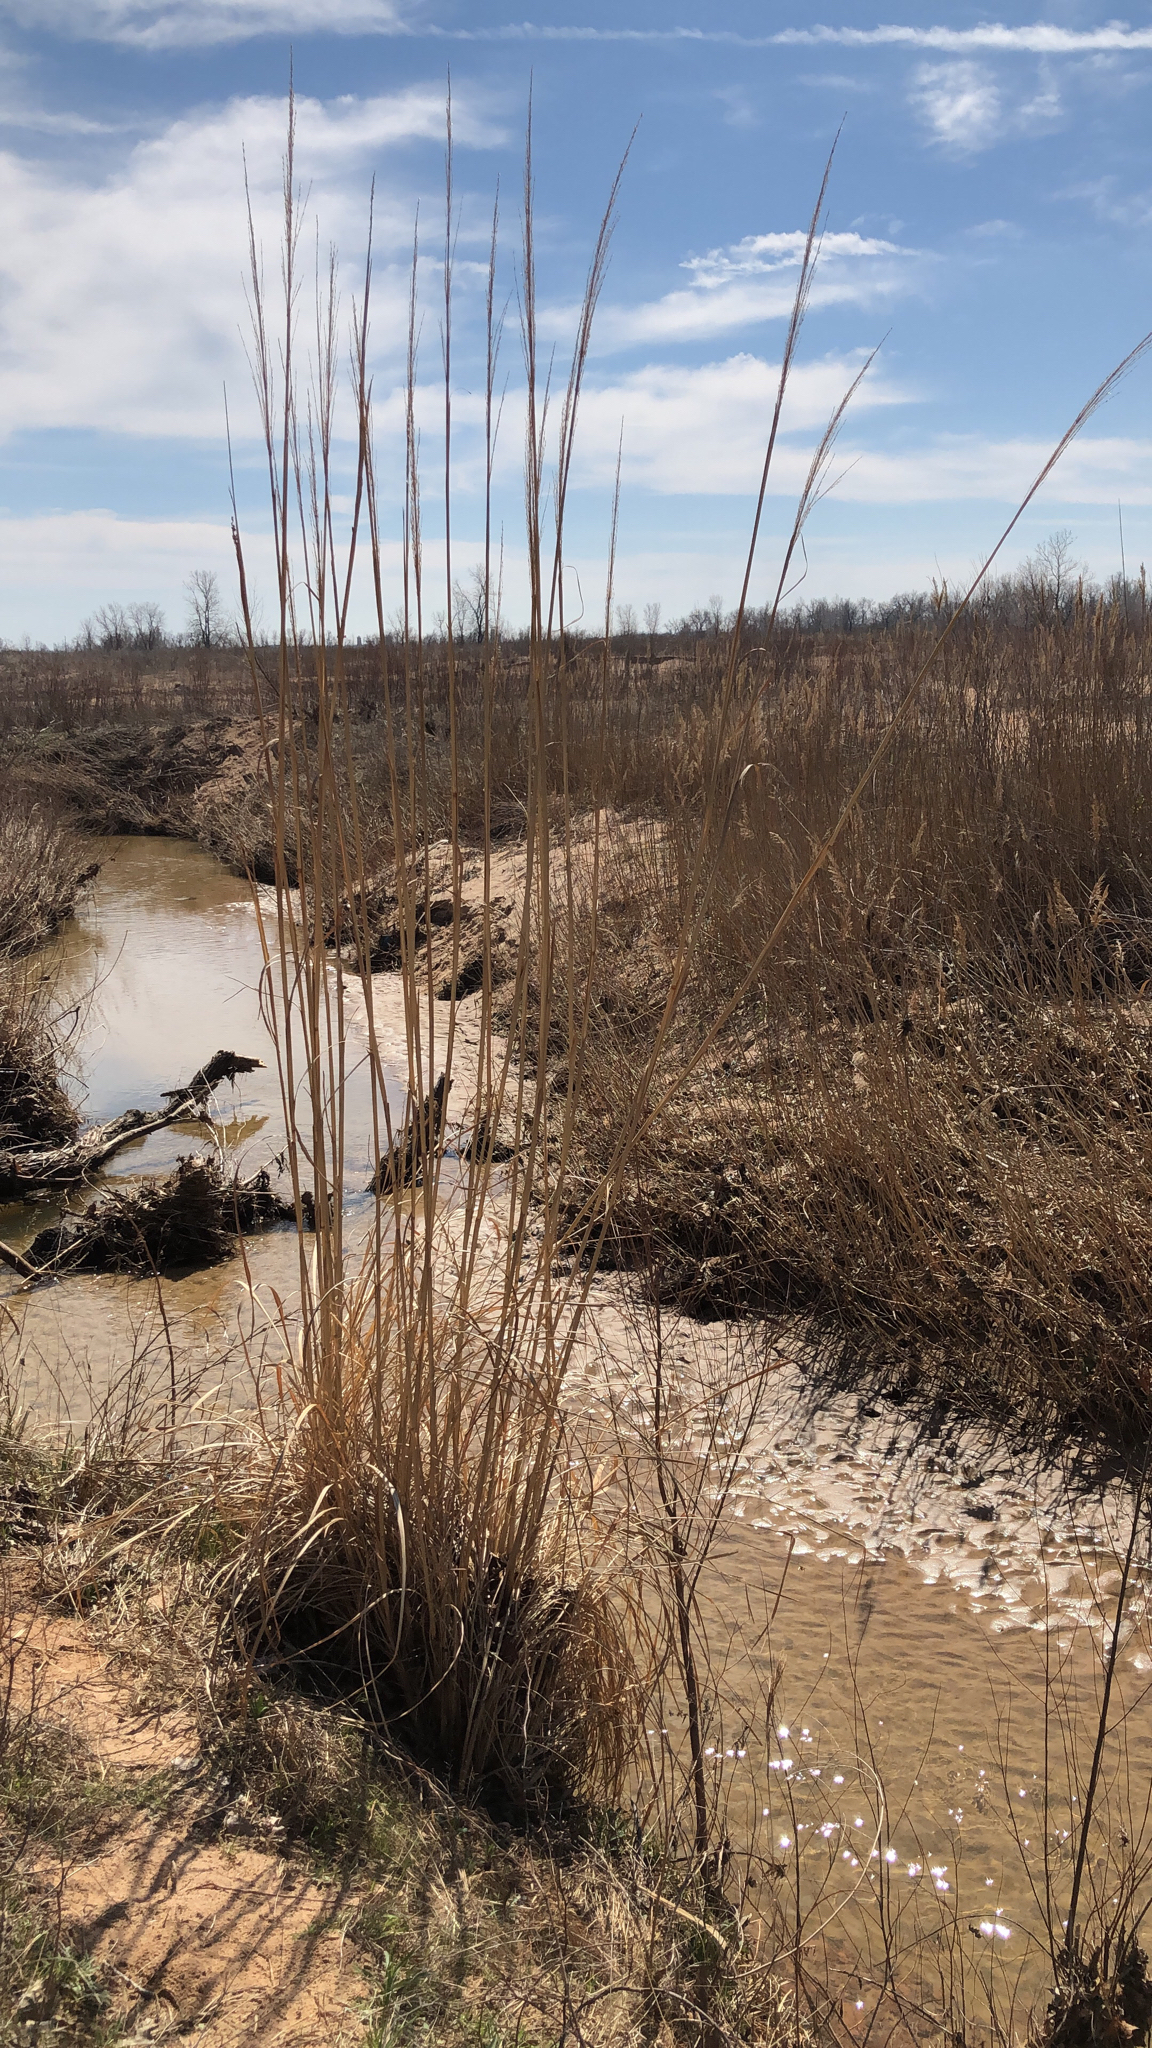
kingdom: Plantae
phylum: Tracheophyta
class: Liliopsida
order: Poales
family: Poaceae
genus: Tripidium
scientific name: Tripidium ravennae
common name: Ravenna grass
